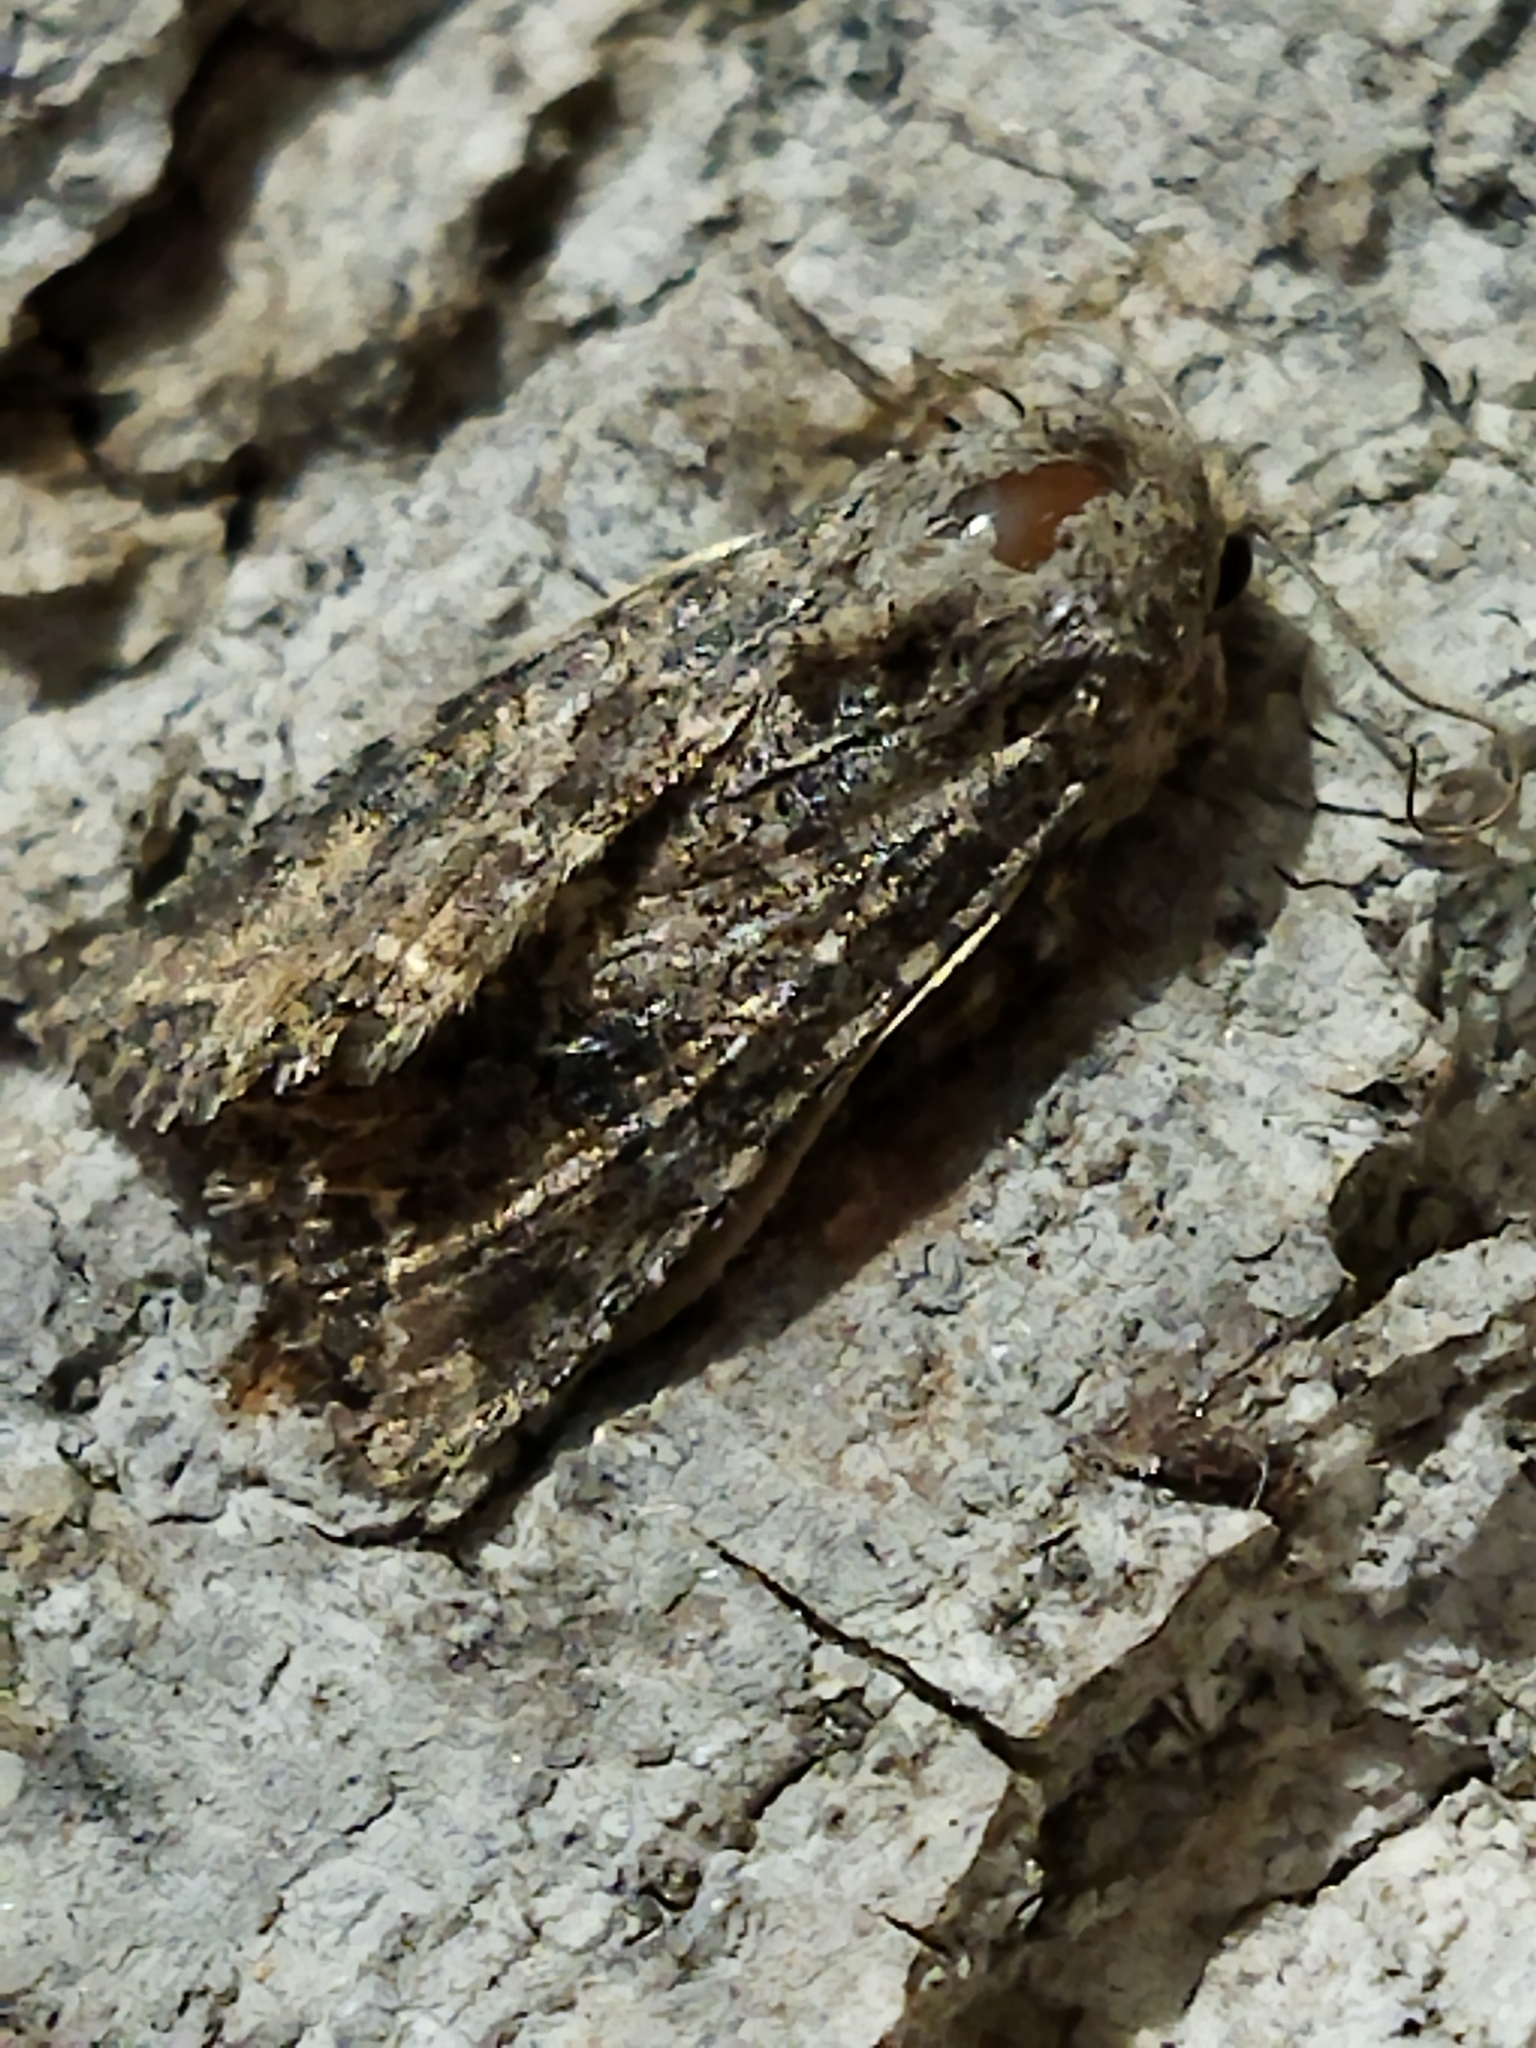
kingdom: Animalia
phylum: Arthropoda
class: Insecta
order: Lepidoptera
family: Noctuidae
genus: Anarta
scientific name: Anarta trifolii
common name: Clover cutworm moth
